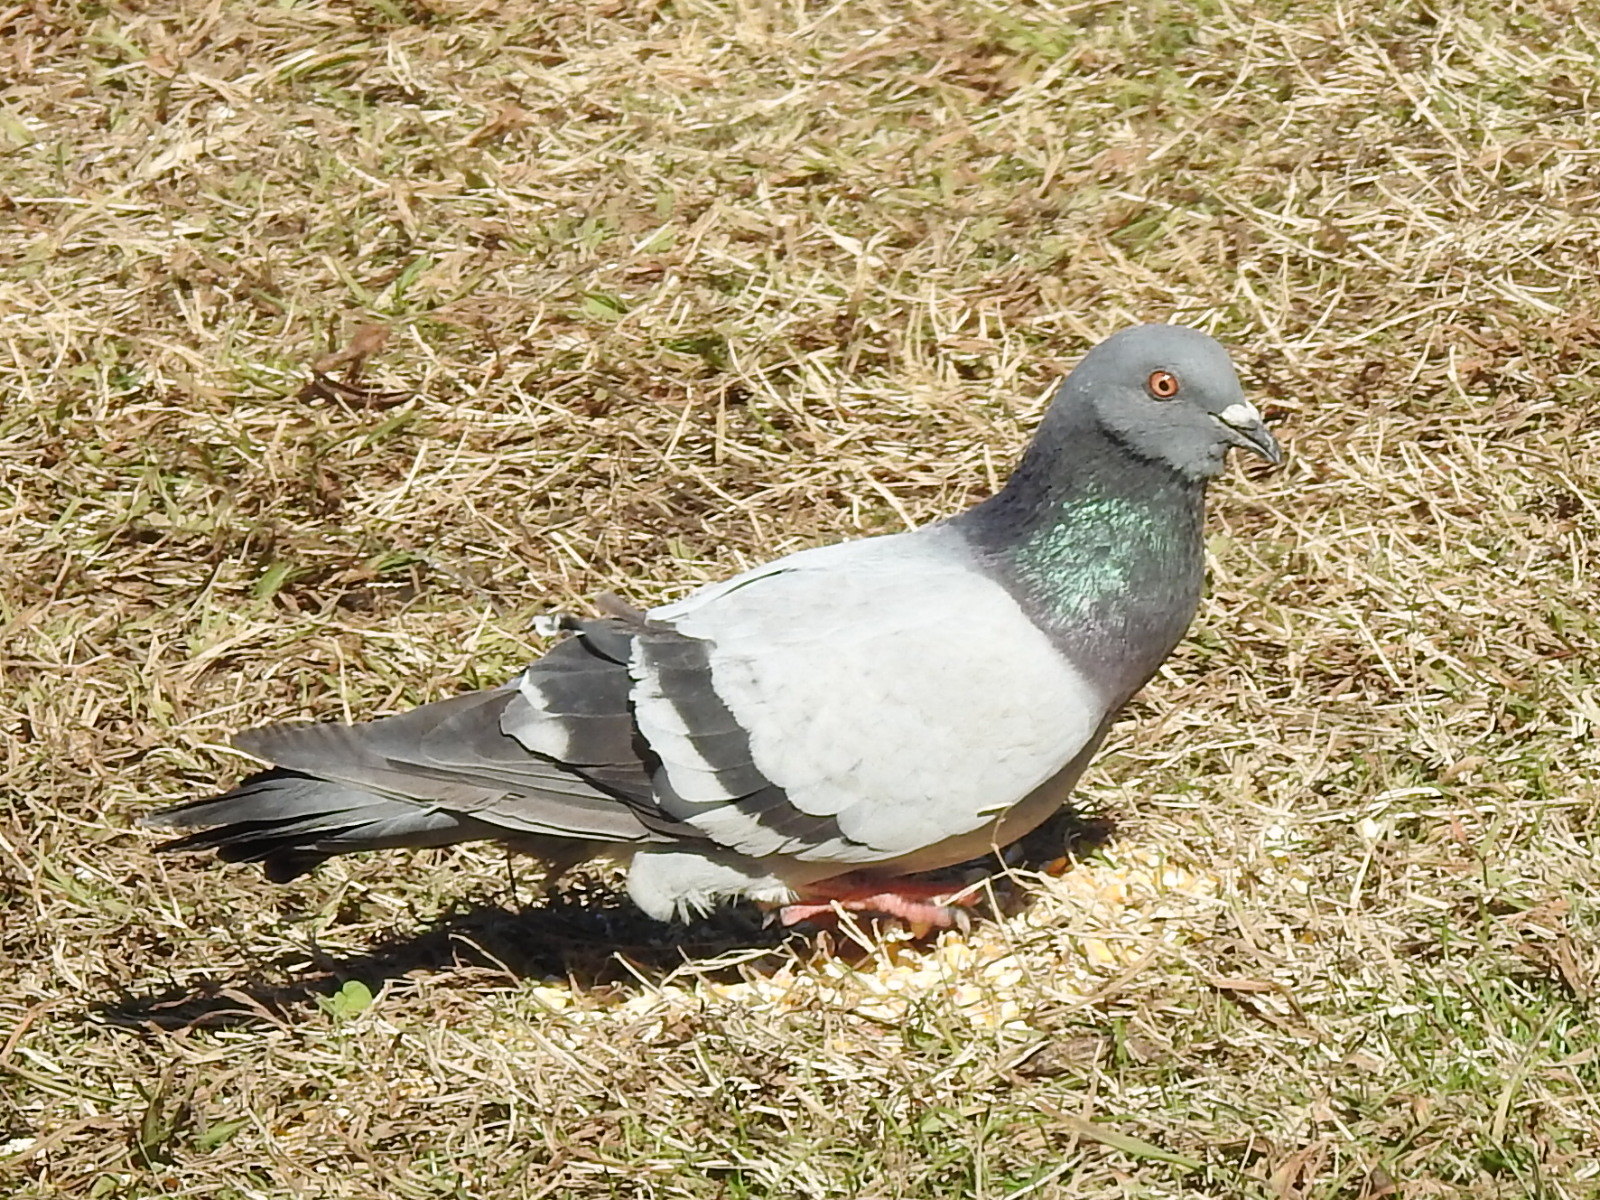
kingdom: Animalia
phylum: Chordata
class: Aves
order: Columbiformes
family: Columbidae
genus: Columba
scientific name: Columba livia
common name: Rock pigeon
